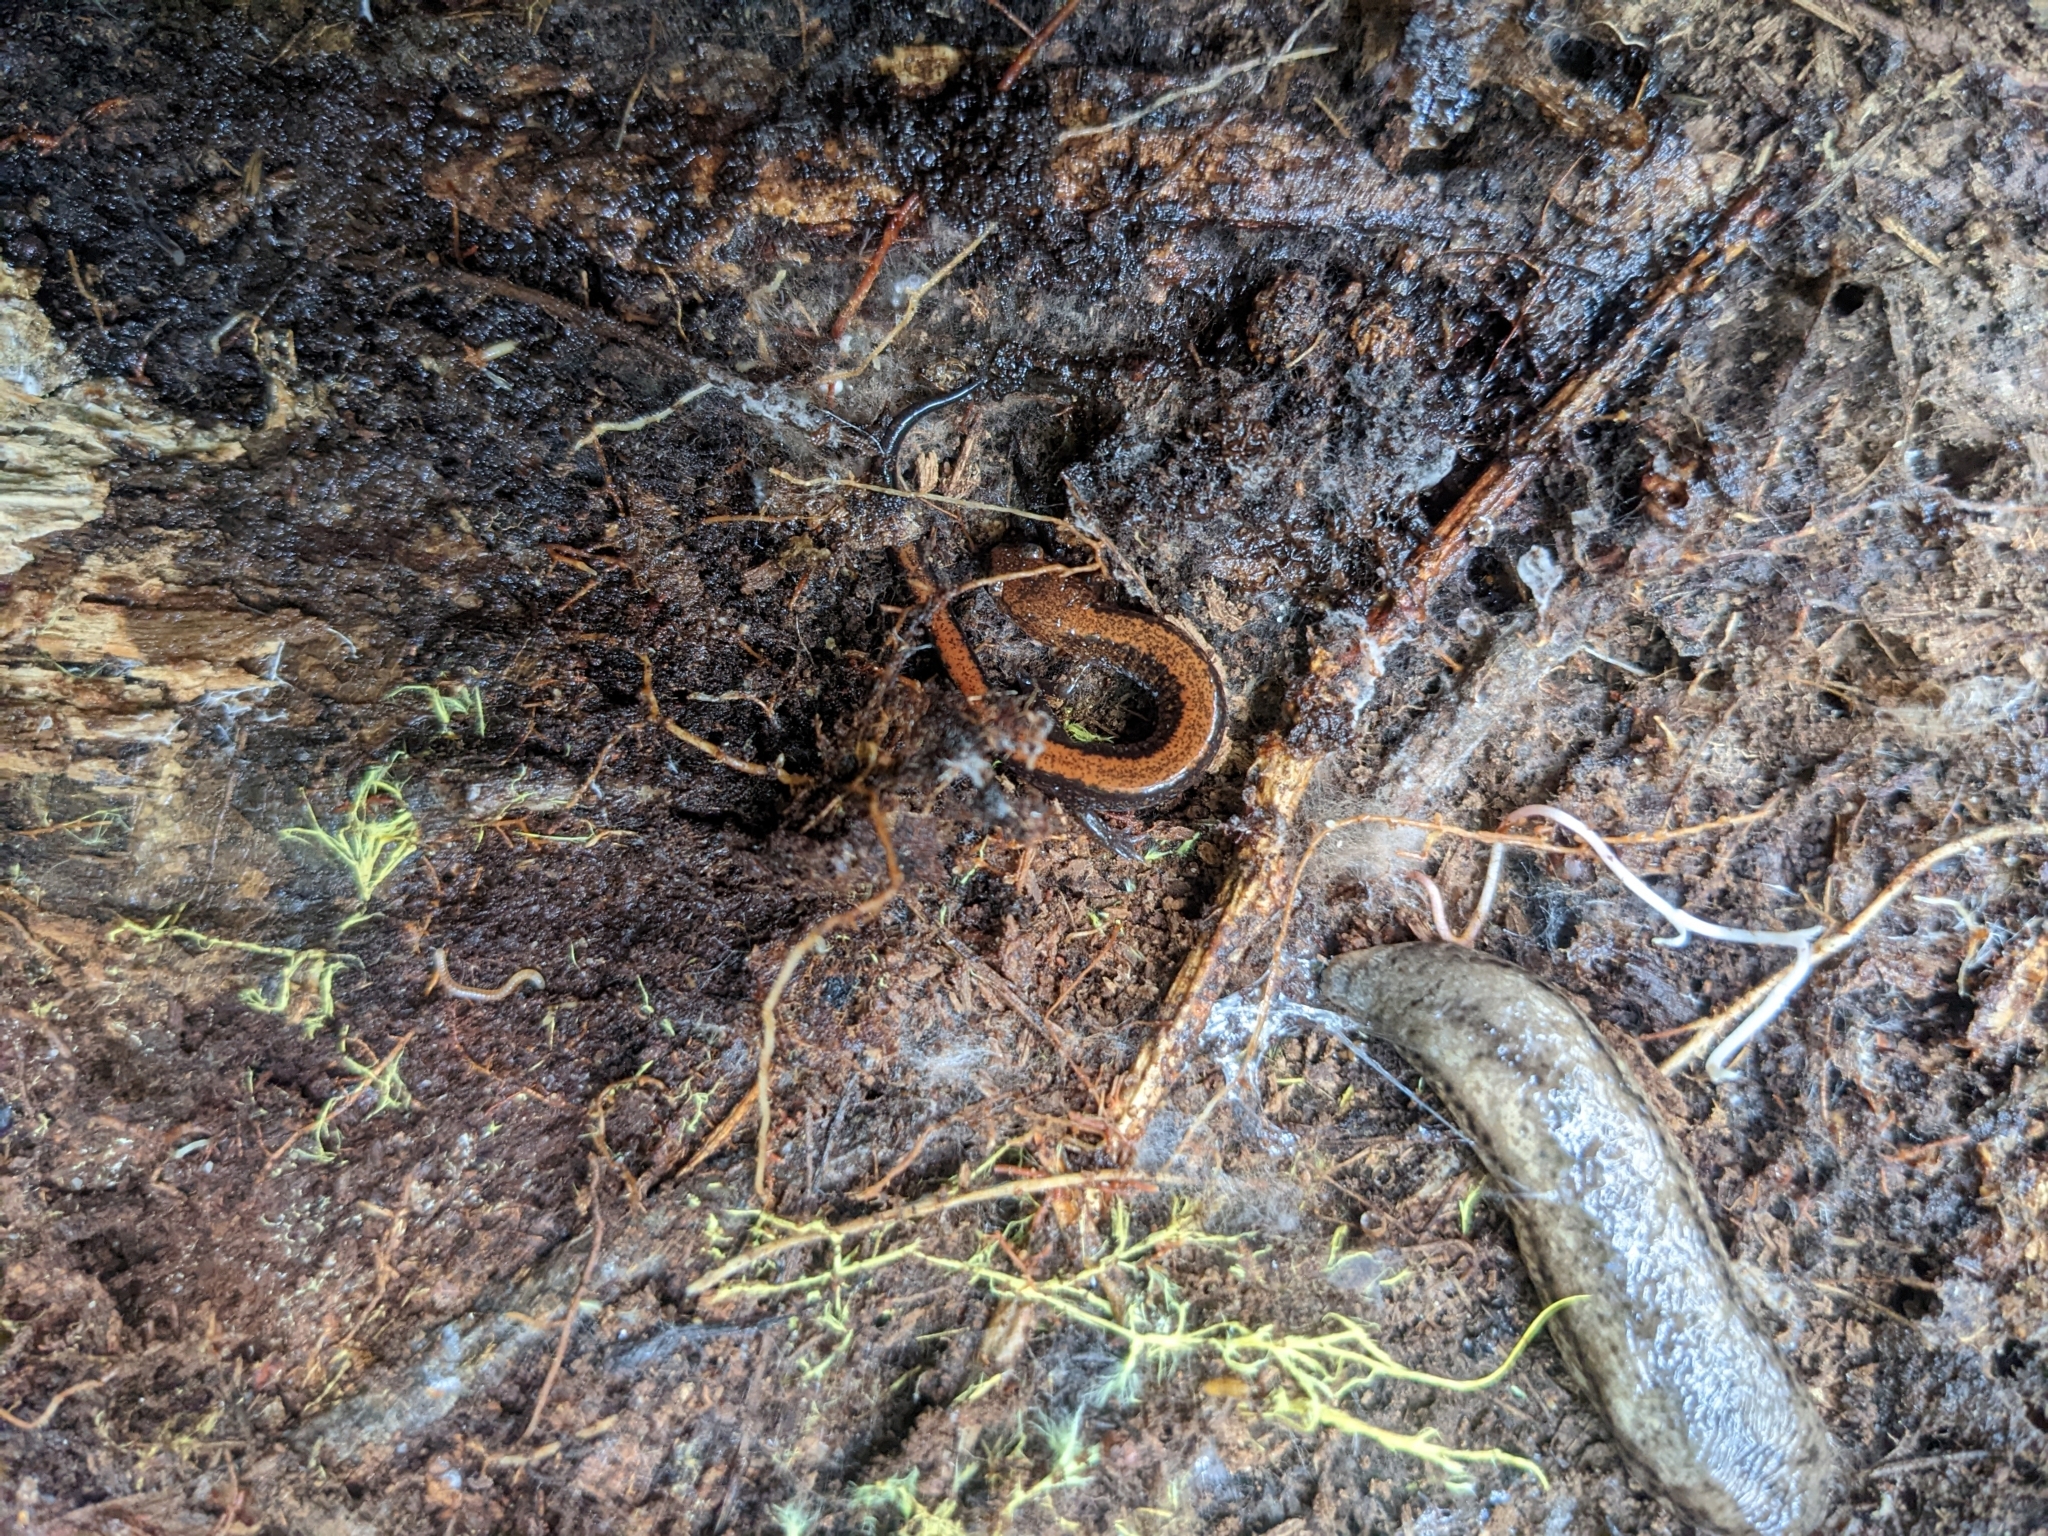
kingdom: Animalia
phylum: Chordata
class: Amphibia
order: Caudata
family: Plethodontidae
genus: Plethodon
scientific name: Plethodon cinereus
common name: Redback salamander
